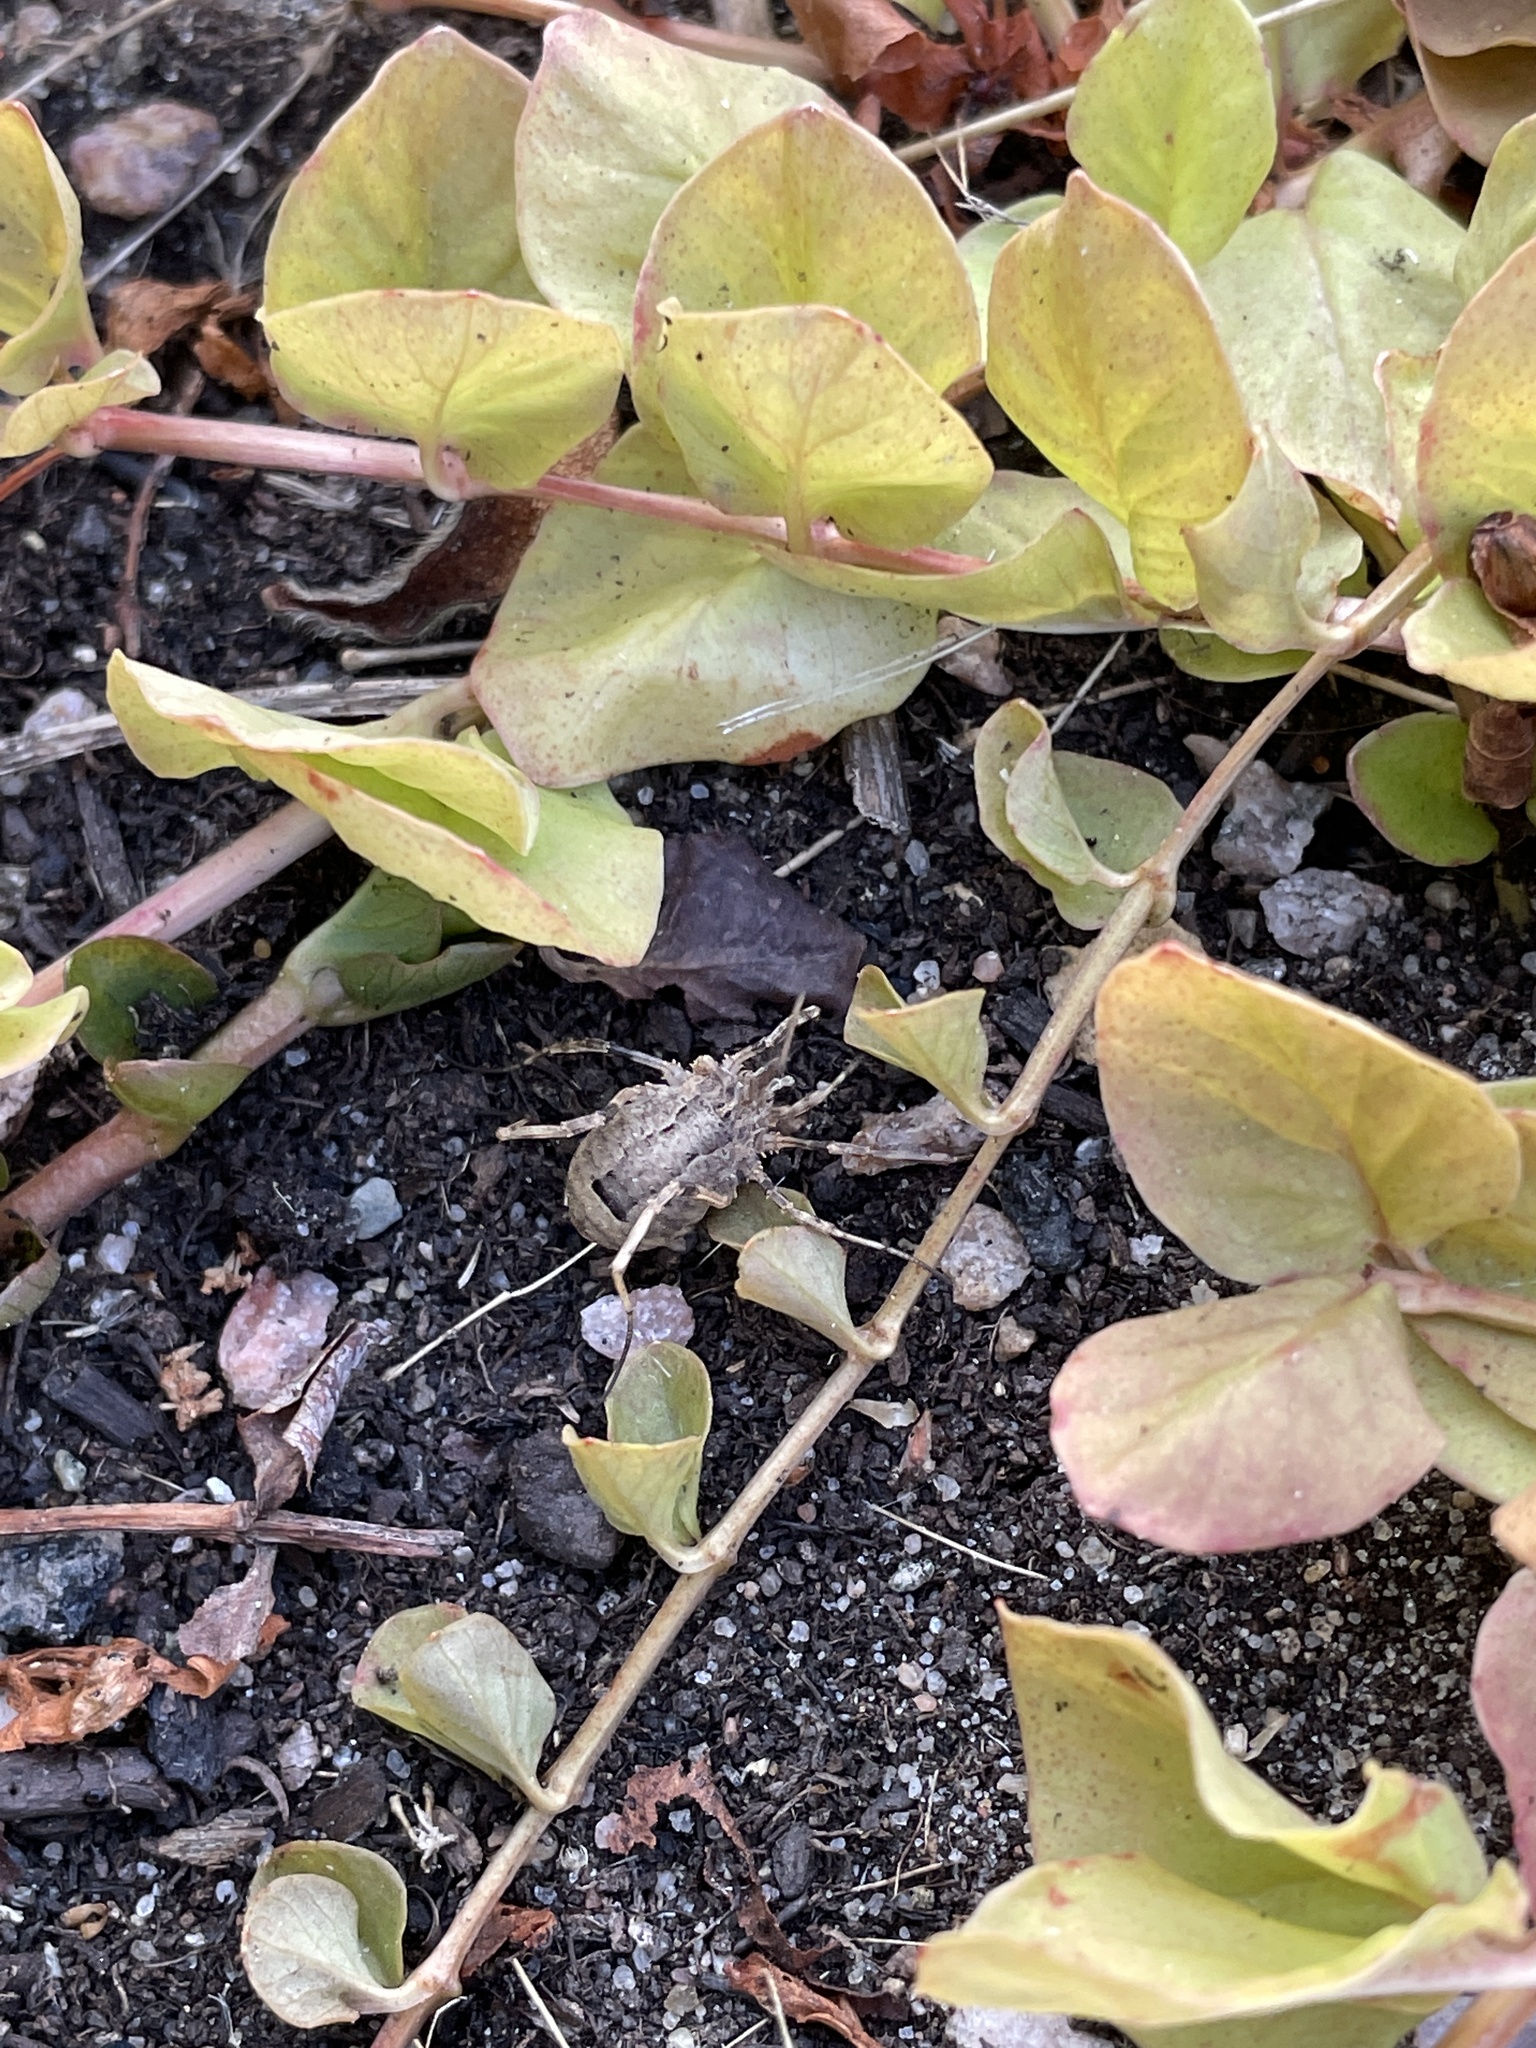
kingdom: Animalia
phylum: Arthropoda
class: Arachnida
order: Opiliones
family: Phalangiidae
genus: Odiellus
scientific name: Odiellus spinosus
